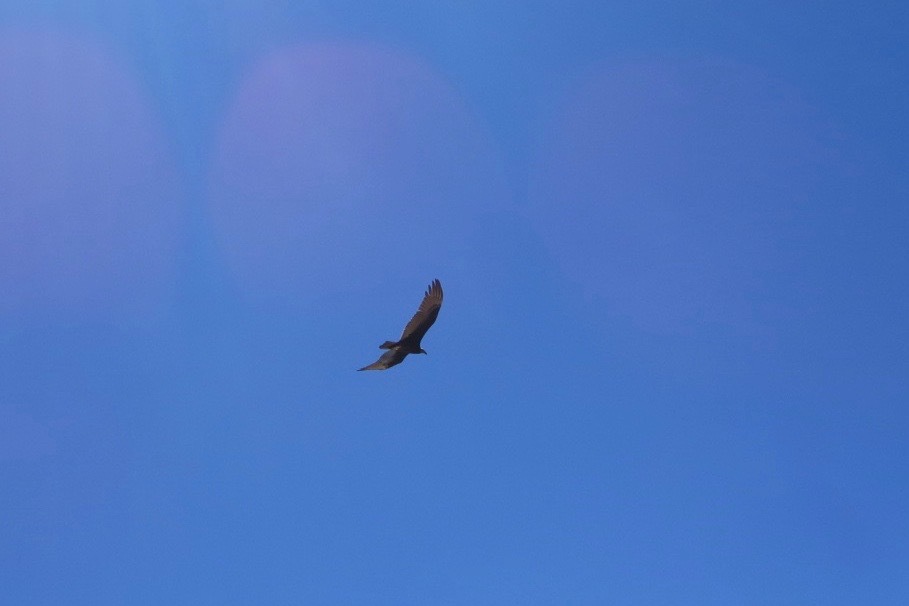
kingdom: Animalia
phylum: Chordata
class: Aves
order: Accipitriformes
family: Cathartidae
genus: Cathartes
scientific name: Cathartes aura
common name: Turkey vulture
